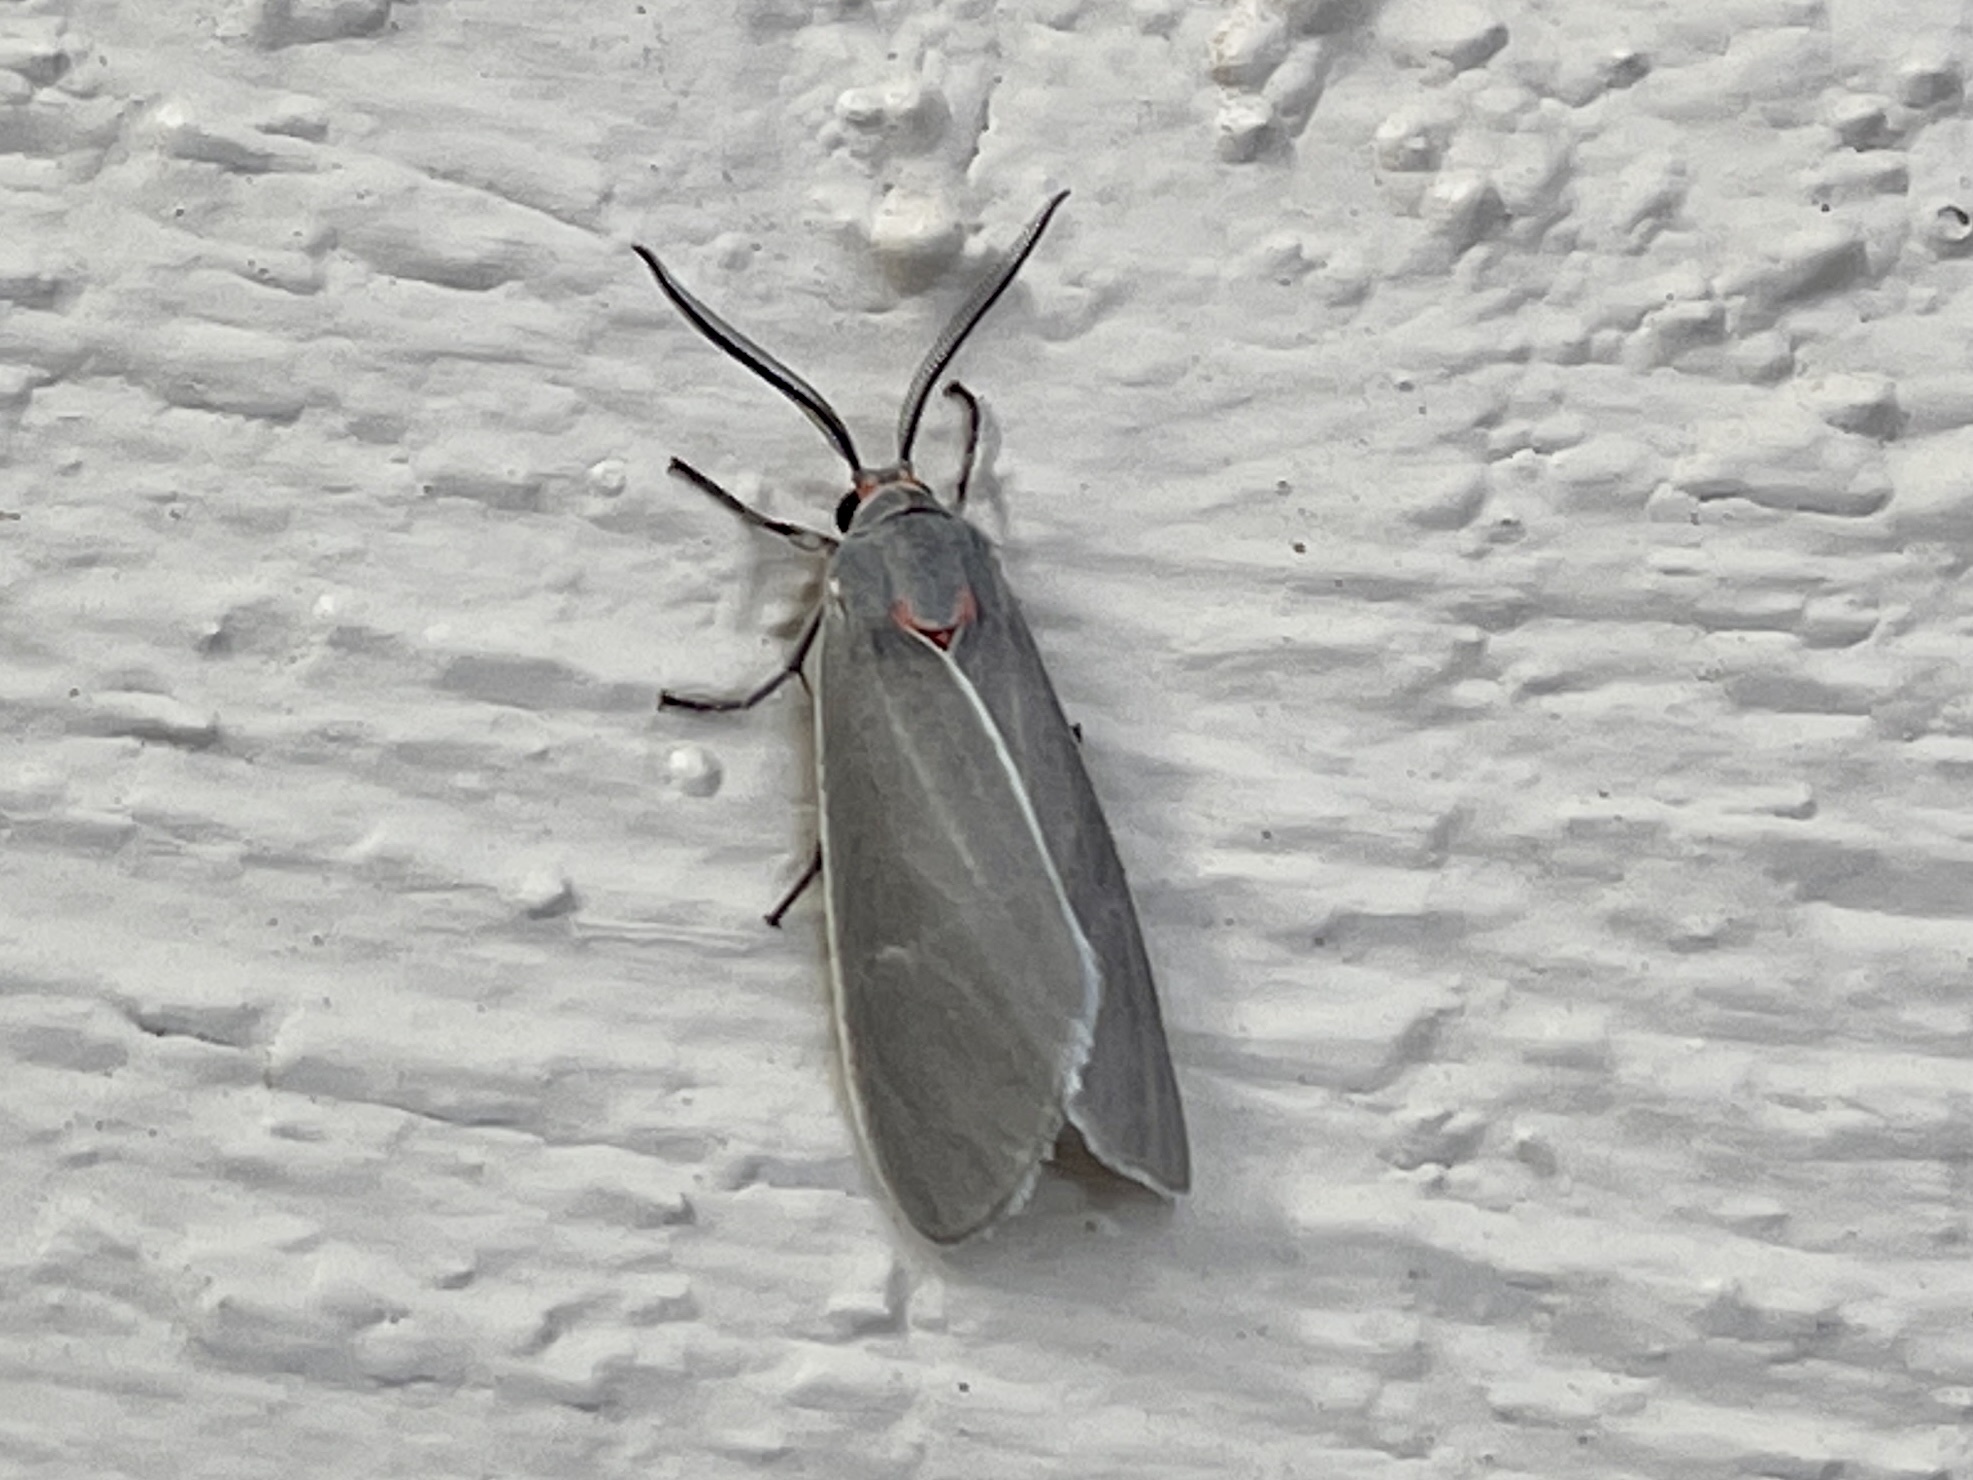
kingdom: Animalia
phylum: Arthropoda
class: Insecta
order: Lepidoptera
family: Erebidae
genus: Pygarctia
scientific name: Pygarctia pterygostigma
